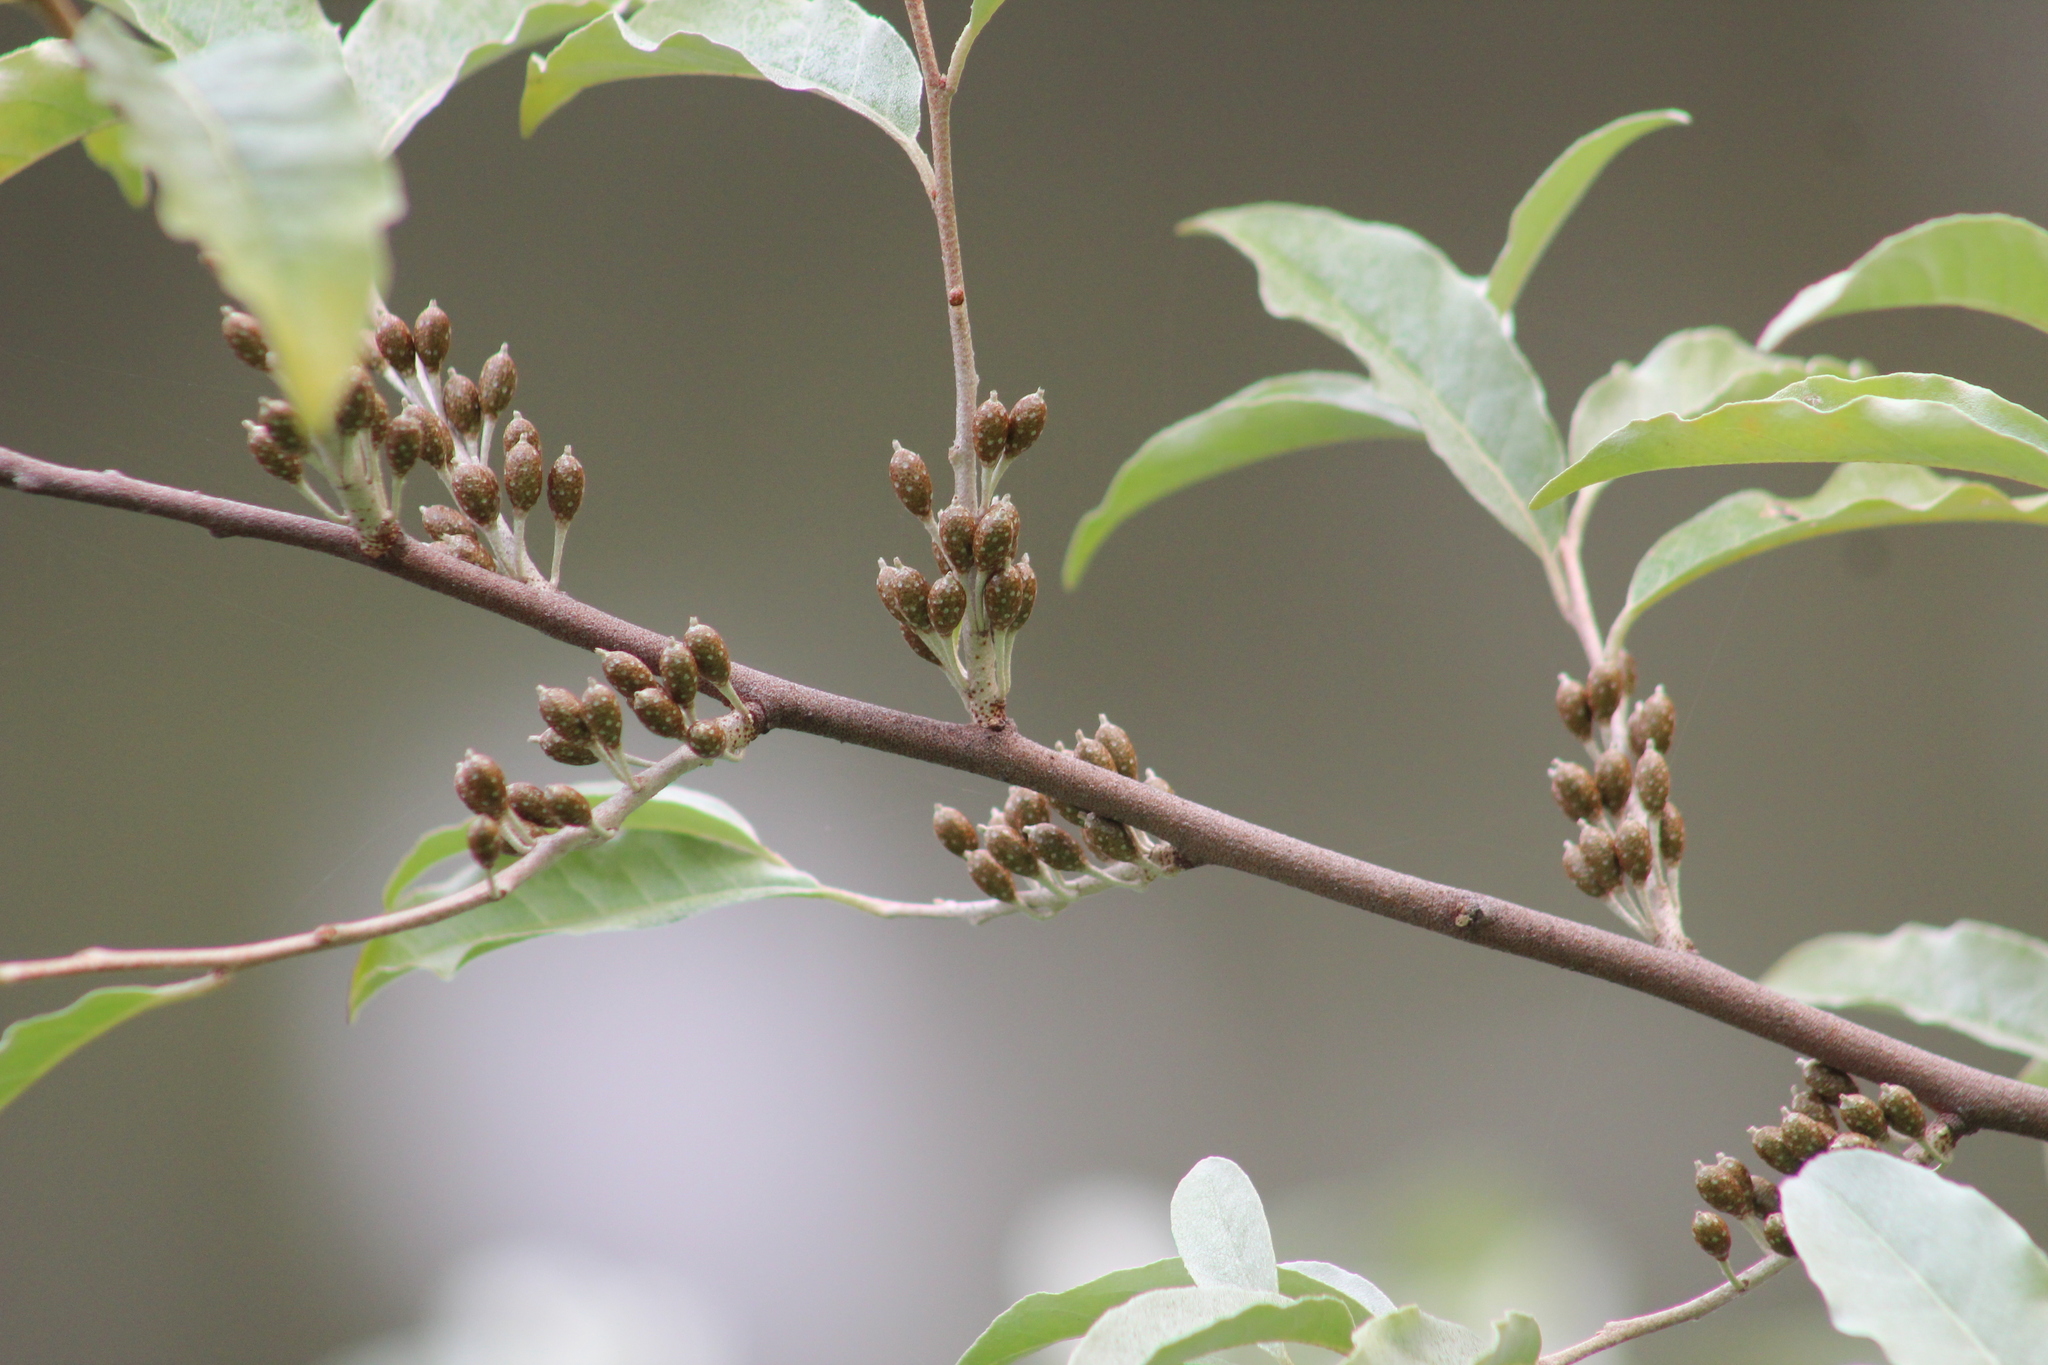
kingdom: Plantae
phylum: Tracheophyta
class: Magnoliopsida
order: Rosales
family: Elaeagnaceae
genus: Elaeagnus
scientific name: Elaeagnus umbellata
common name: Autumn olive
